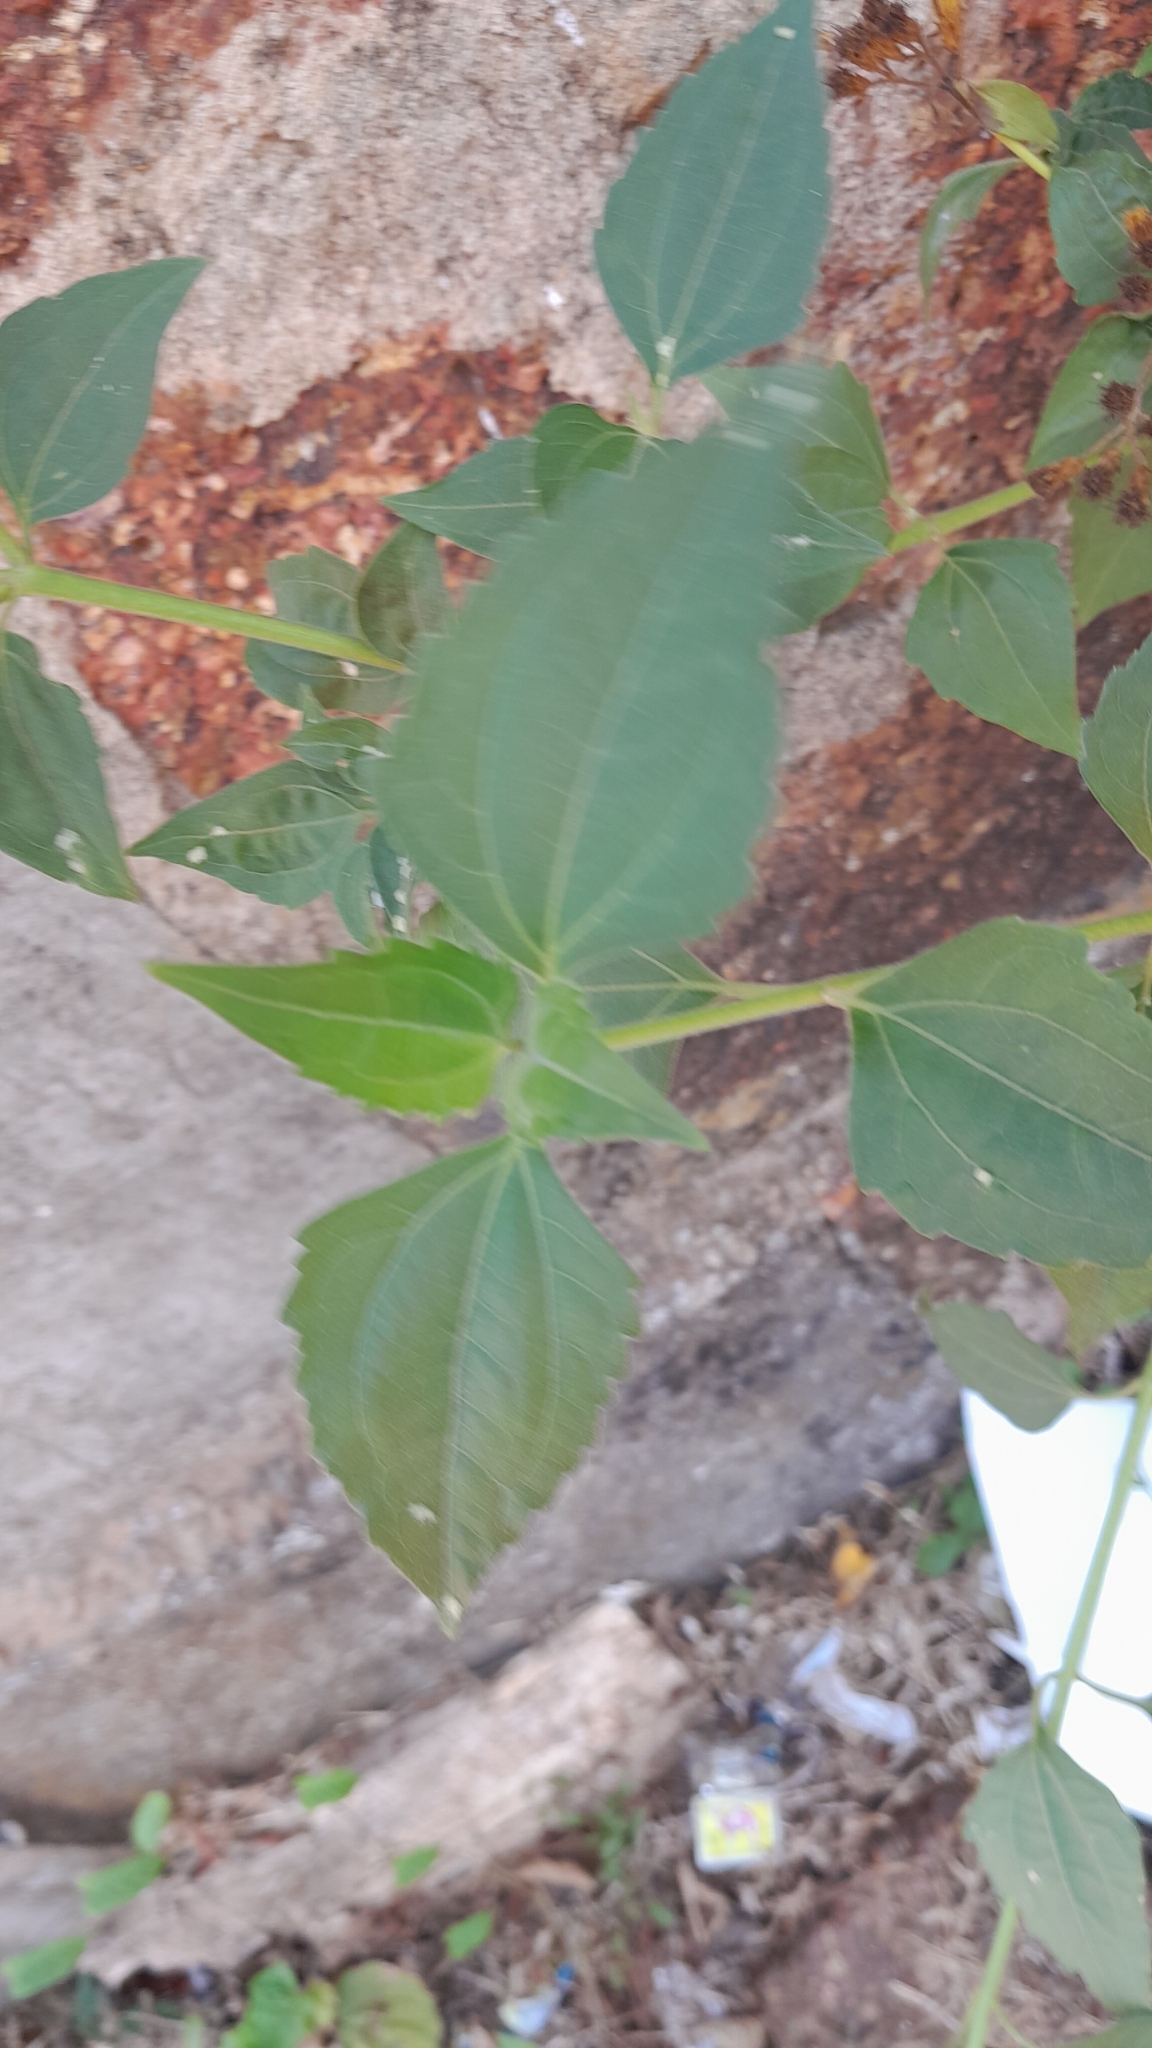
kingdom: Plantae
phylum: Tracheophyta
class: Magnoliopsida
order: Asterales
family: Asteraceae
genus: Chromolaena
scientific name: Chromolaena odorata
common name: Siamweed
